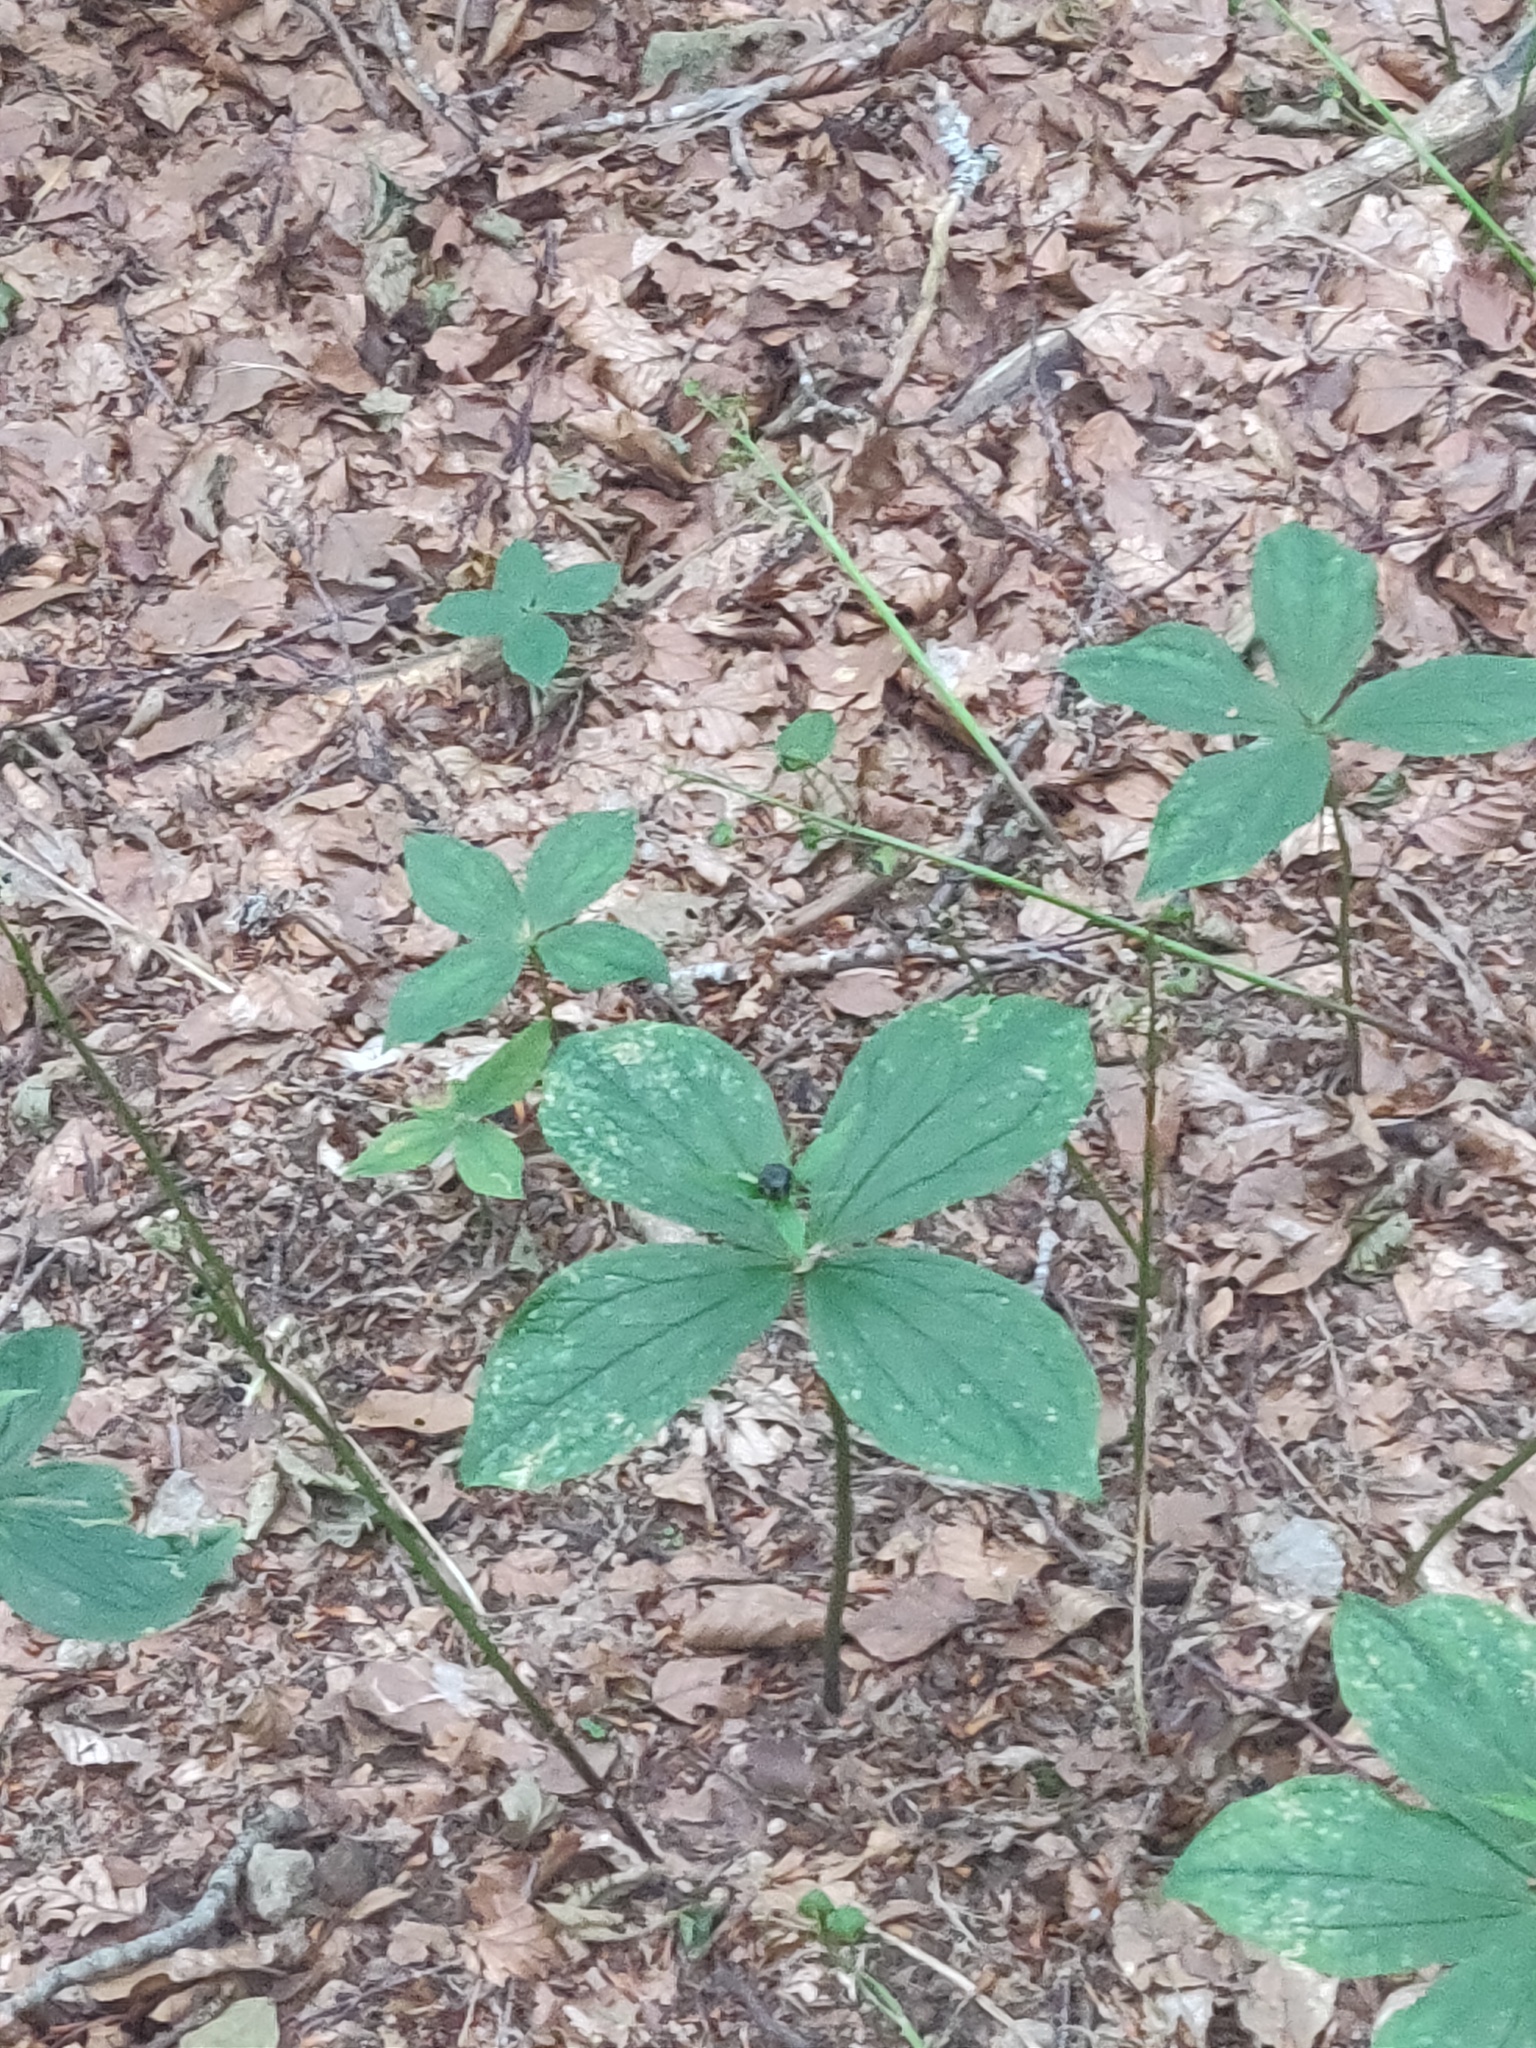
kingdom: Plantae
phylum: Tracheophyta
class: Liliopsida
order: Liliales
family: Melanthiaceae
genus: Paris
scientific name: Paris quadrifolia
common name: Herb-paris
